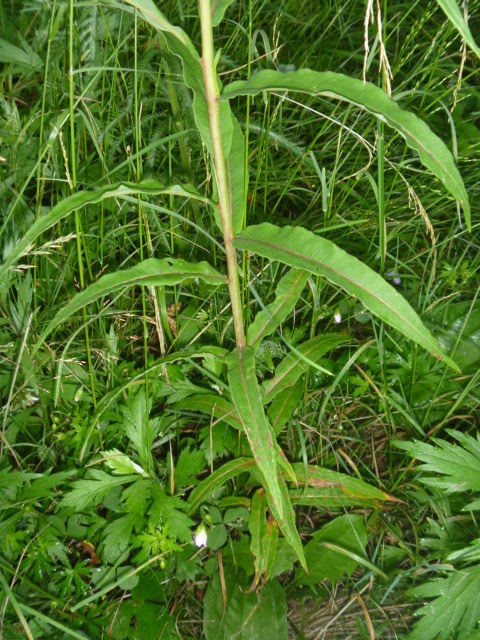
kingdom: Plantae
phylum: Tracheophyta
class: Magnoliopsida
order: Myrtales
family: Onagraceae
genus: Chamaenerion
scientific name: Chamaenerion angustifolium
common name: Fireweed
